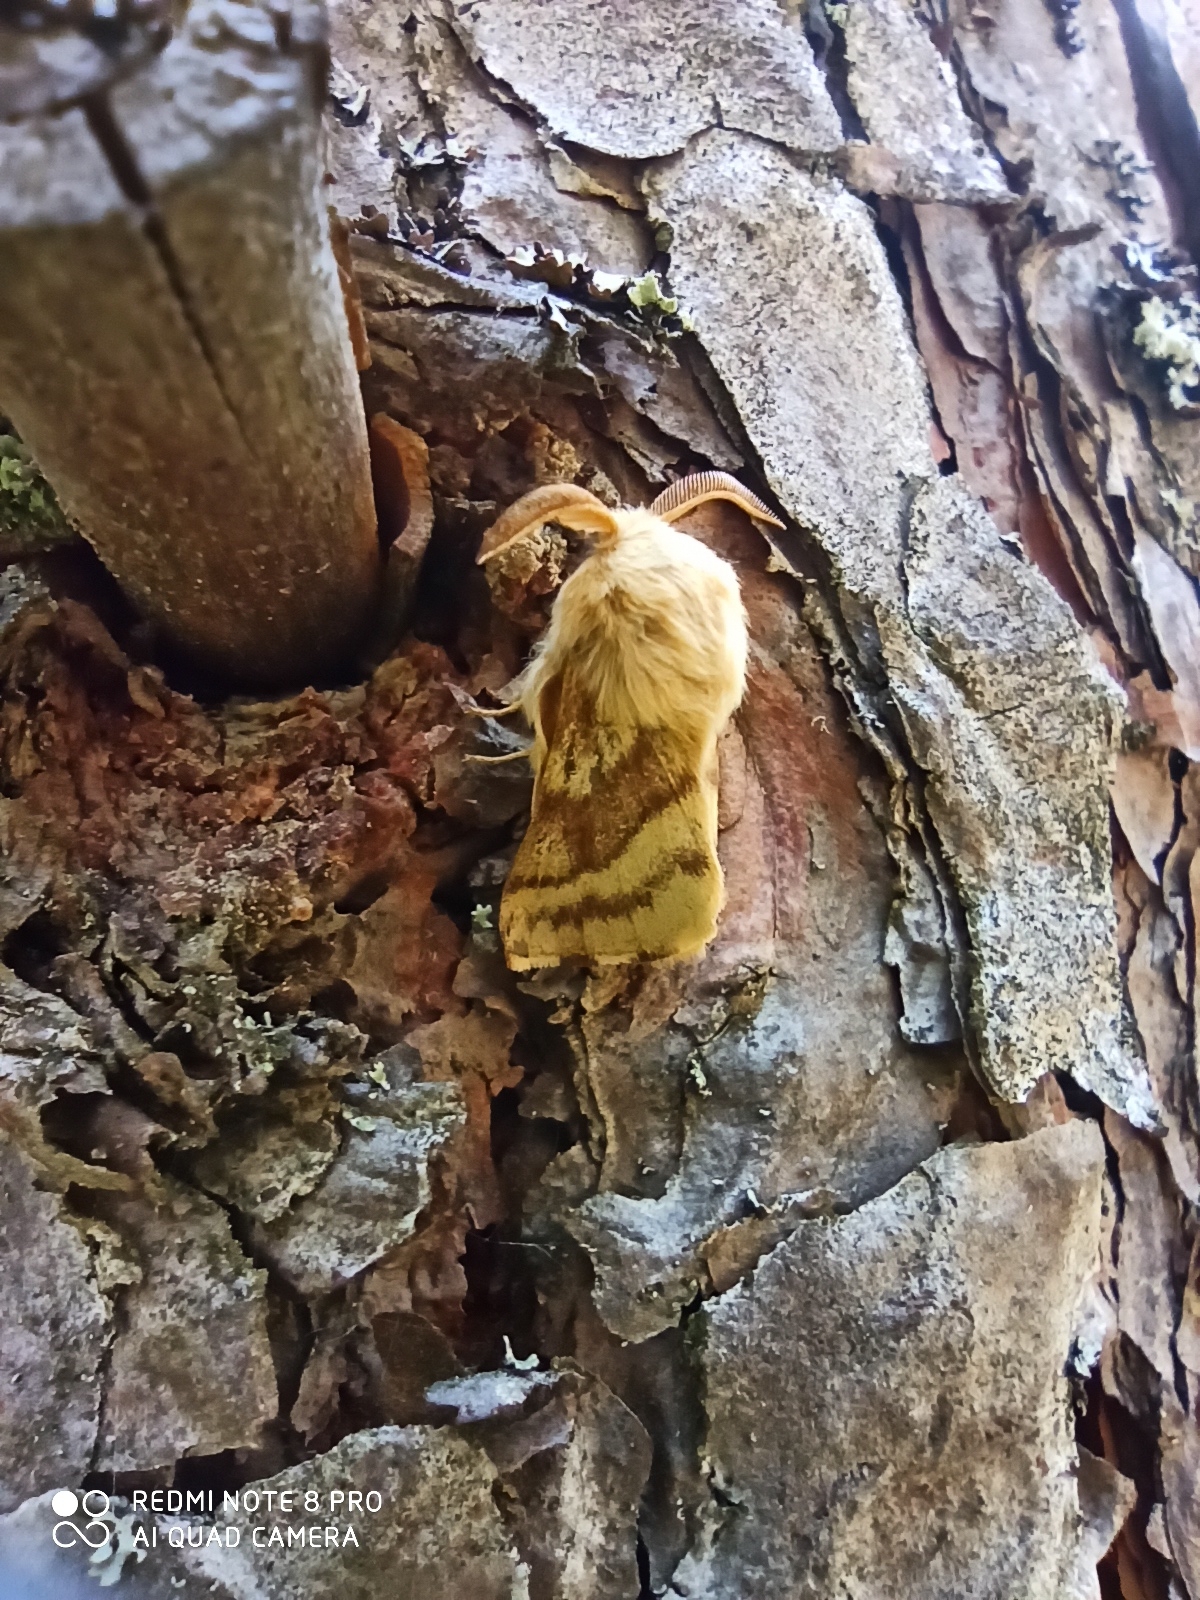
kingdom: Animalia
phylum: Arthropoda
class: Insecta
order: Lepidoptera
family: Lasiocampidae
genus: Malacosoma
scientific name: Malacosoma castrense
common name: Ground lackey
